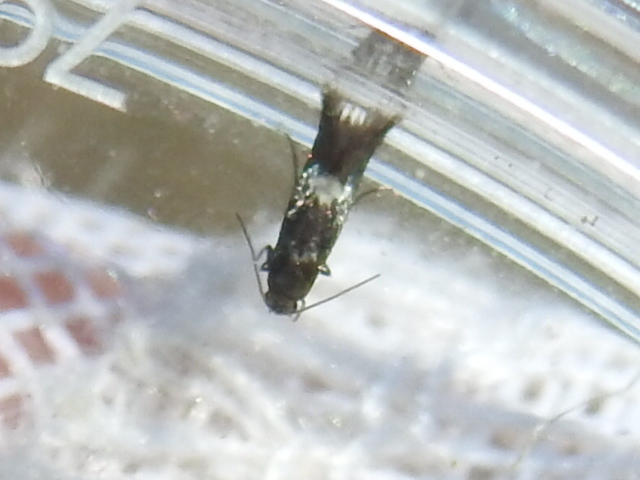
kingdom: Animalia
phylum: Arthropoda
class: Insecta
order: Lepidoptera
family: Glyphipterigidae
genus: Glyphipterix
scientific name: Glyphipterix Diploschizia impigritella
